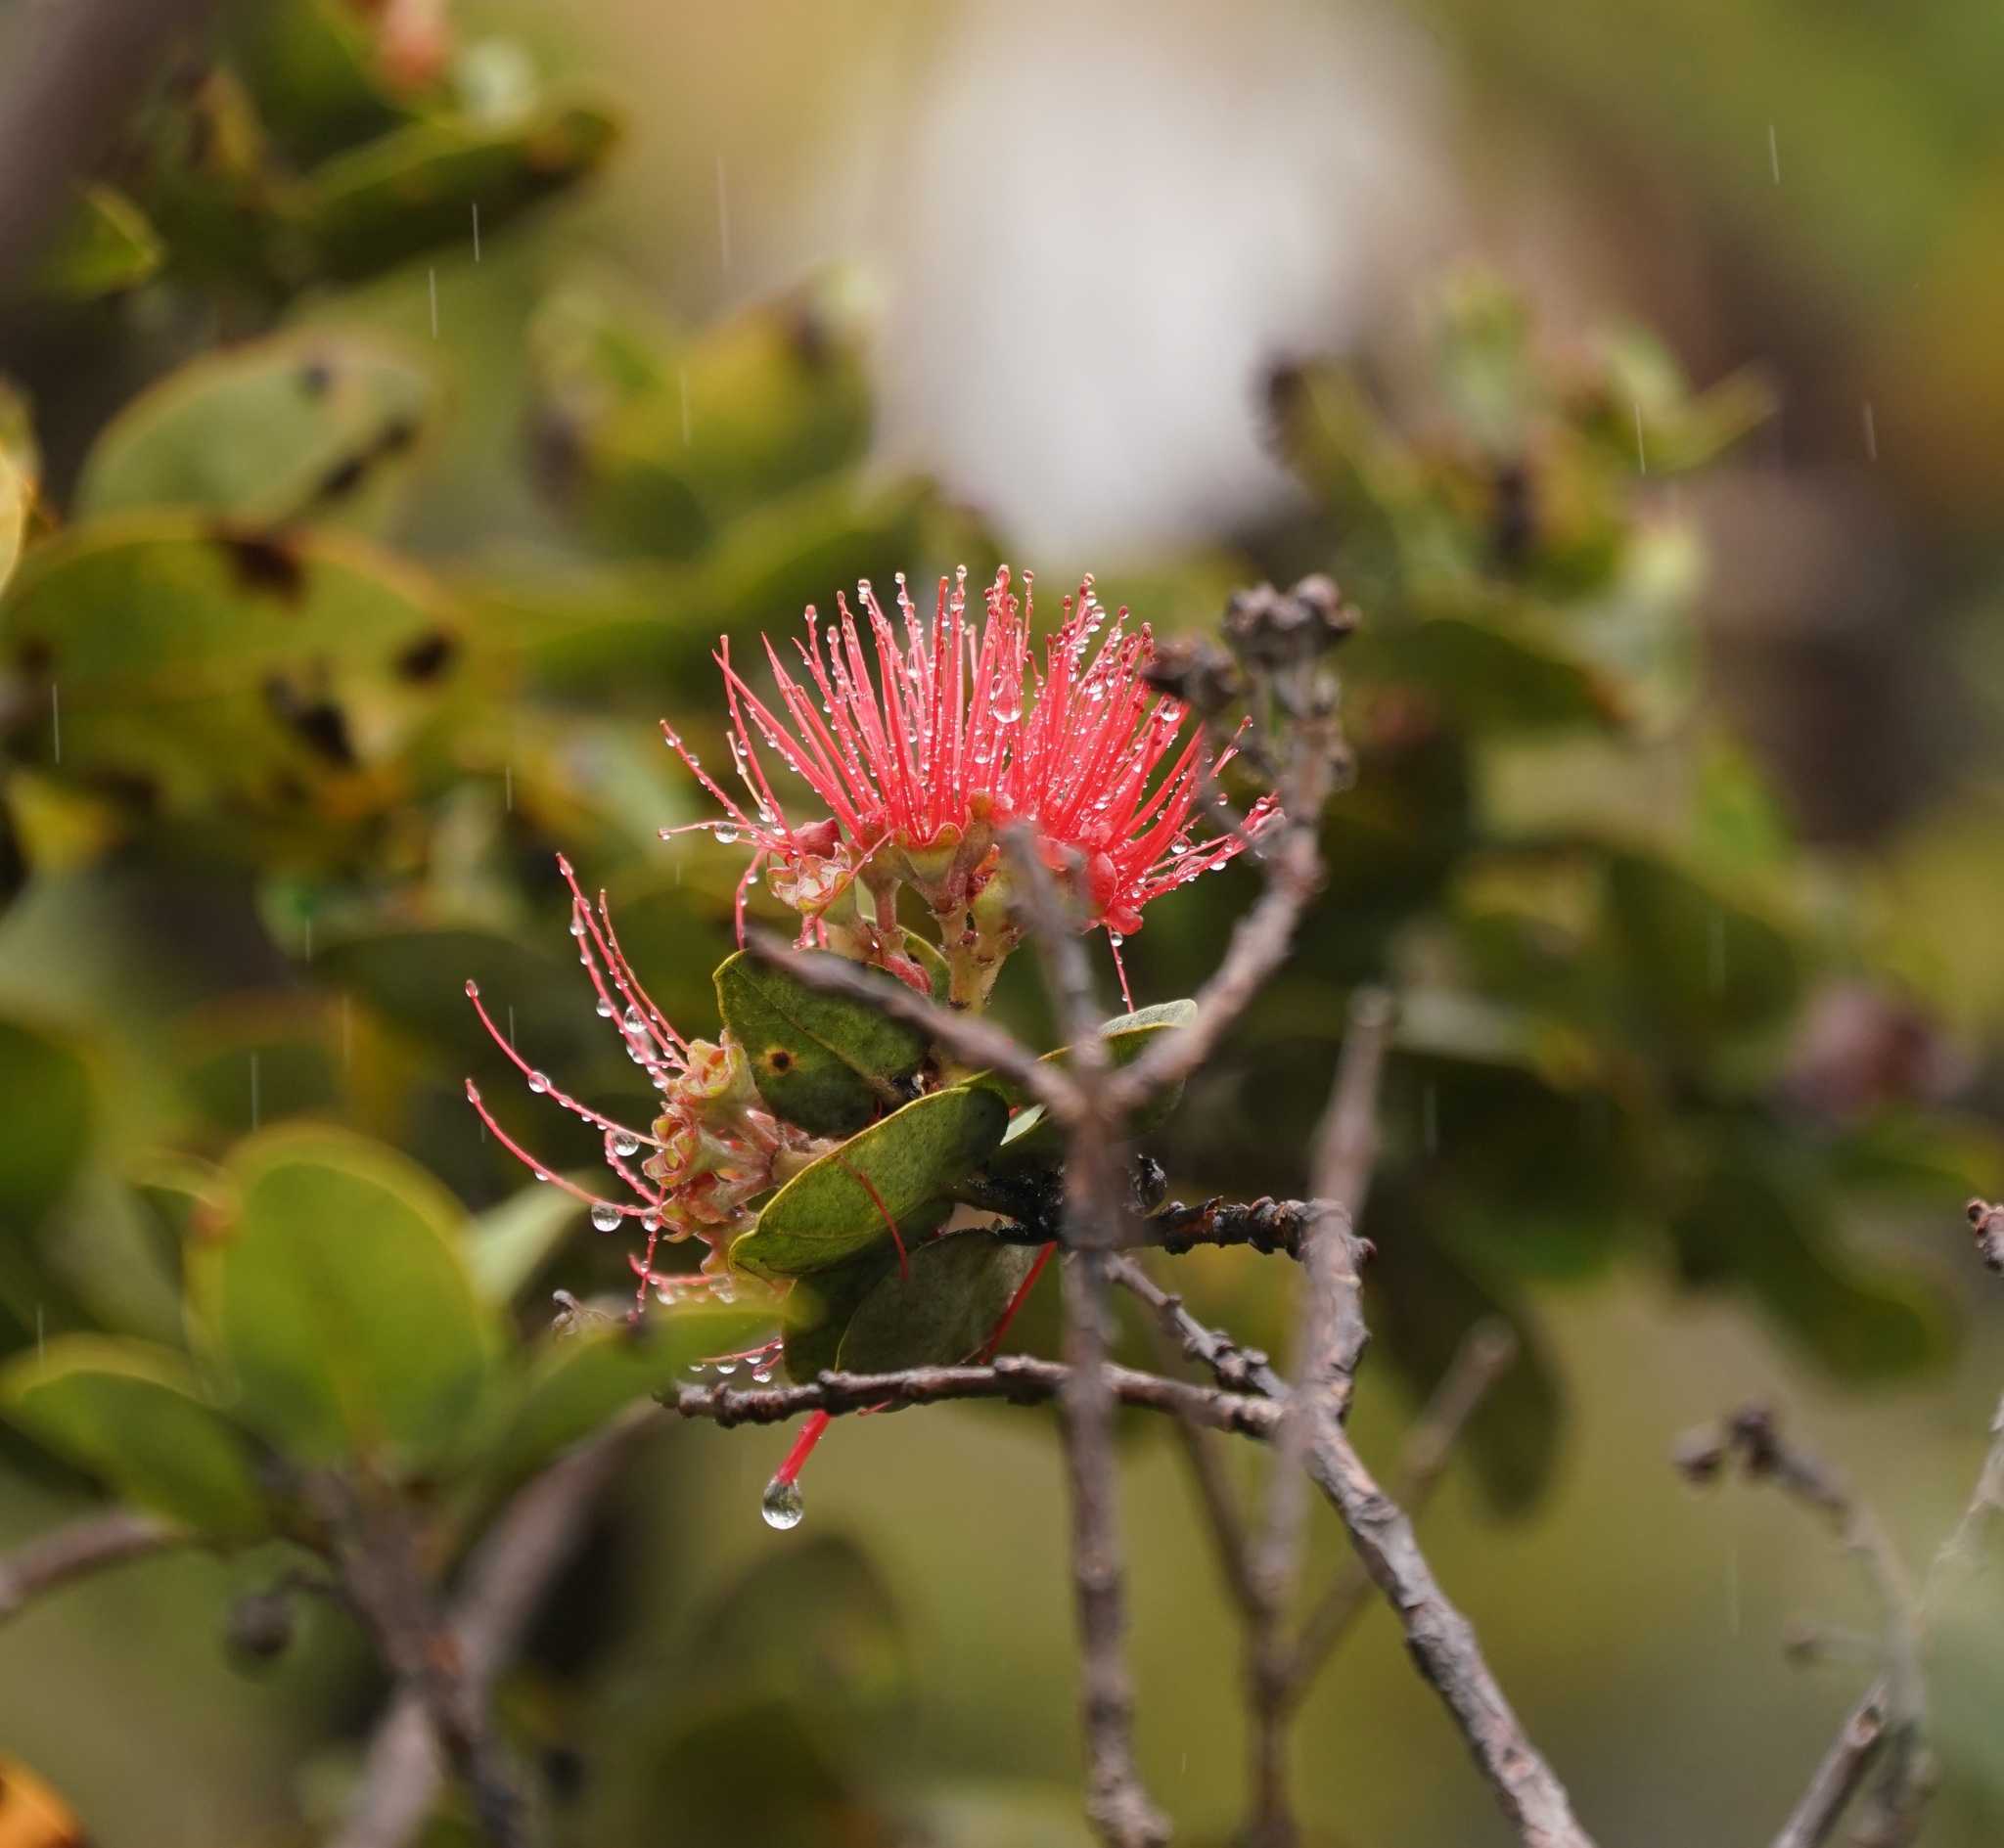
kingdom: Plantae
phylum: Tracheophyta
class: Magnoliopsida
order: Myrtales
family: Myrtaceae
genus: Metrosideros
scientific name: Metrosideros polymorpha
